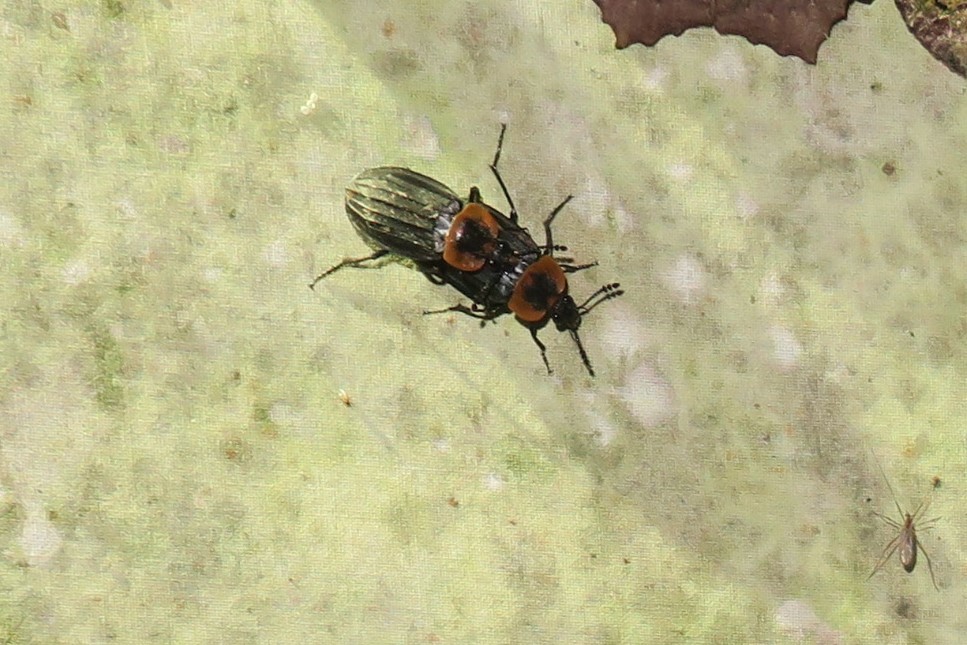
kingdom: Animalia
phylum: Arthropoda
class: Insecta
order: Coleoptera
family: Staphylinidae
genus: Oxelytrum
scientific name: Oxelytrum discicolle
